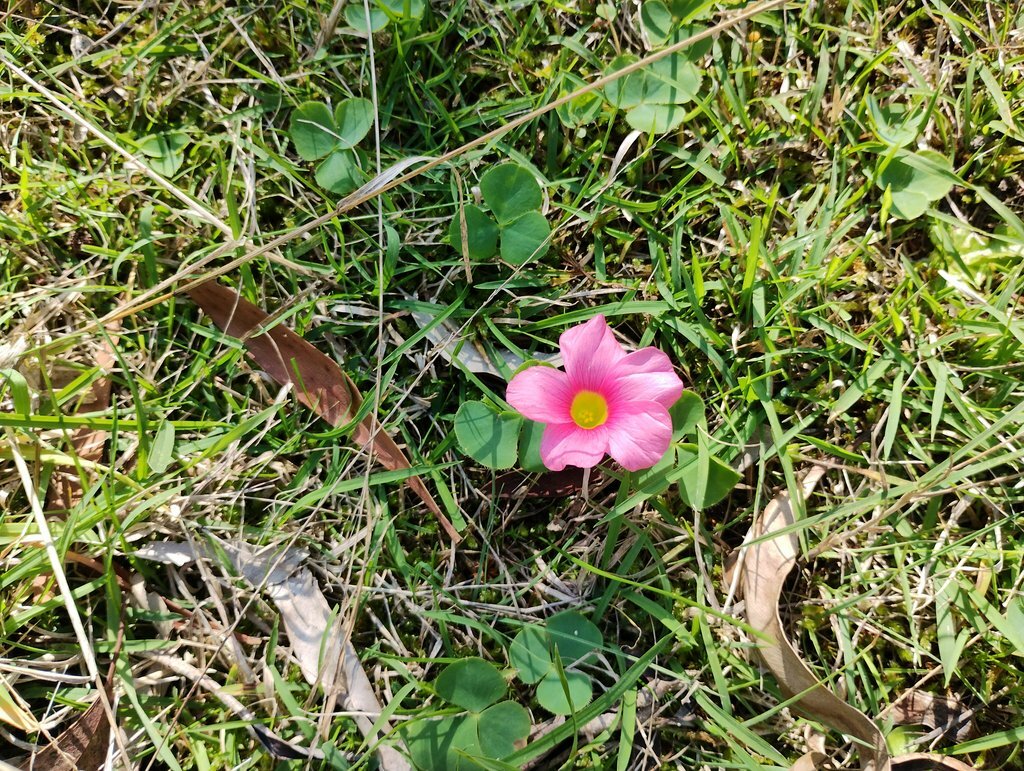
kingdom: Plantae
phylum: Tracheophyta
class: Magnoliopsida
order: Oxalidales
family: Oxalidaceae
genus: Oxalis
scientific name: Oxalis purpurea
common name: Purple woodsorrel
